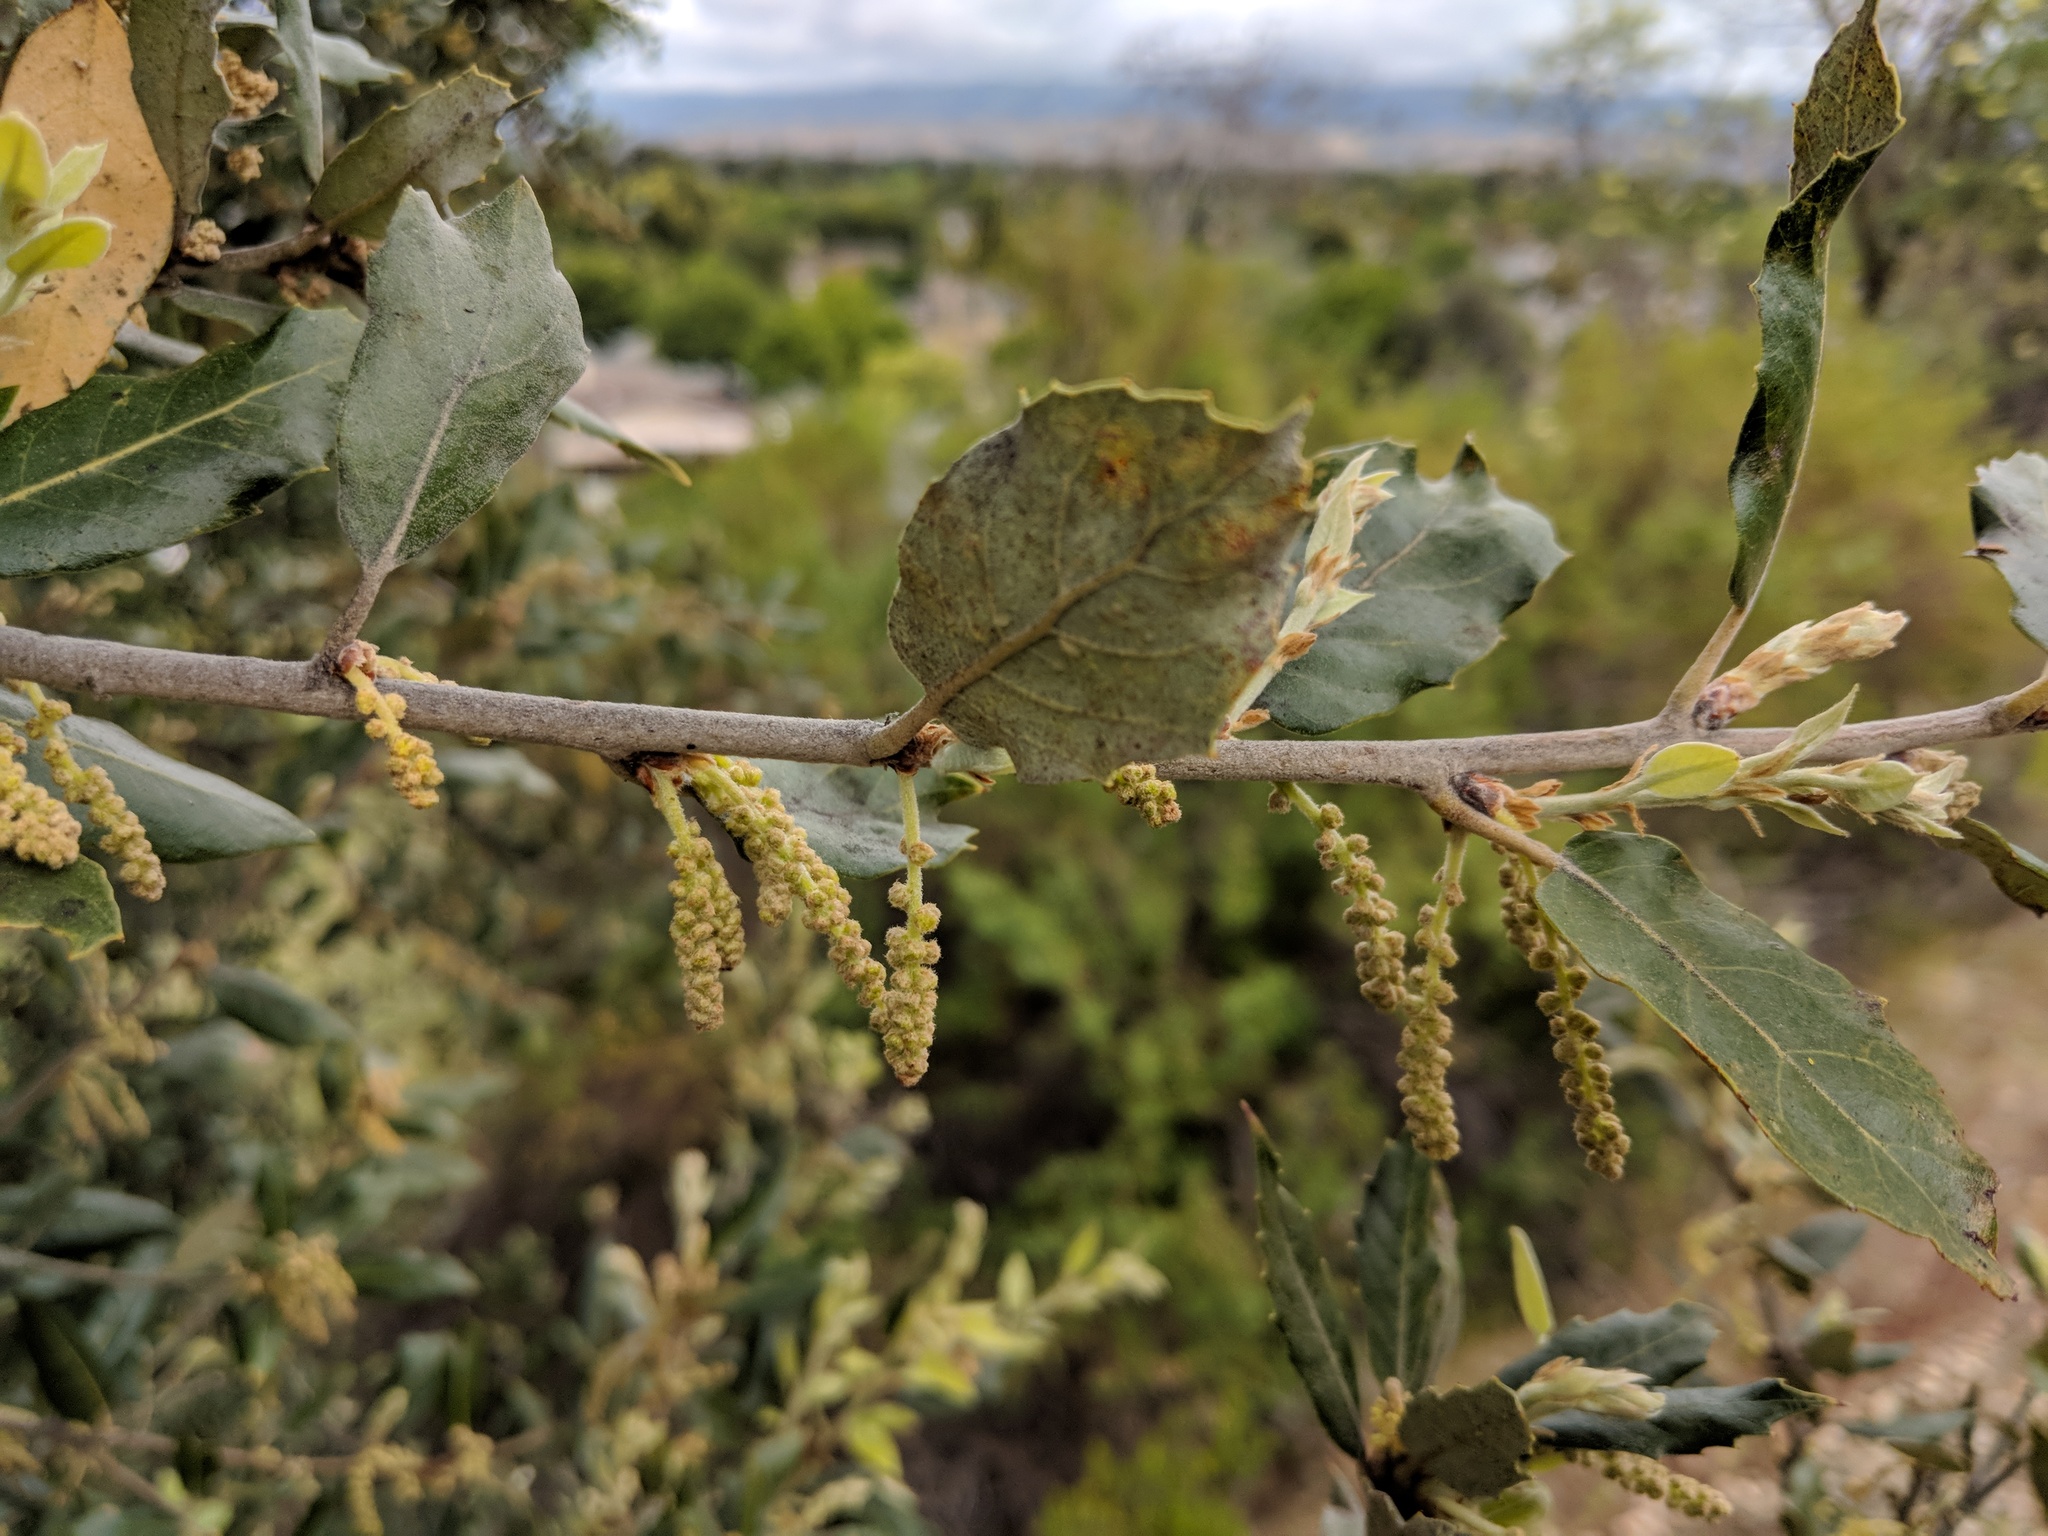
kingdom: Plantae
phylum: Tracheophyta
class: Magnoliopsida
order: Fagales
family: Fagaceae
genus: Quercus
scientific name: Quercus agrifolia
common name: California live oak
